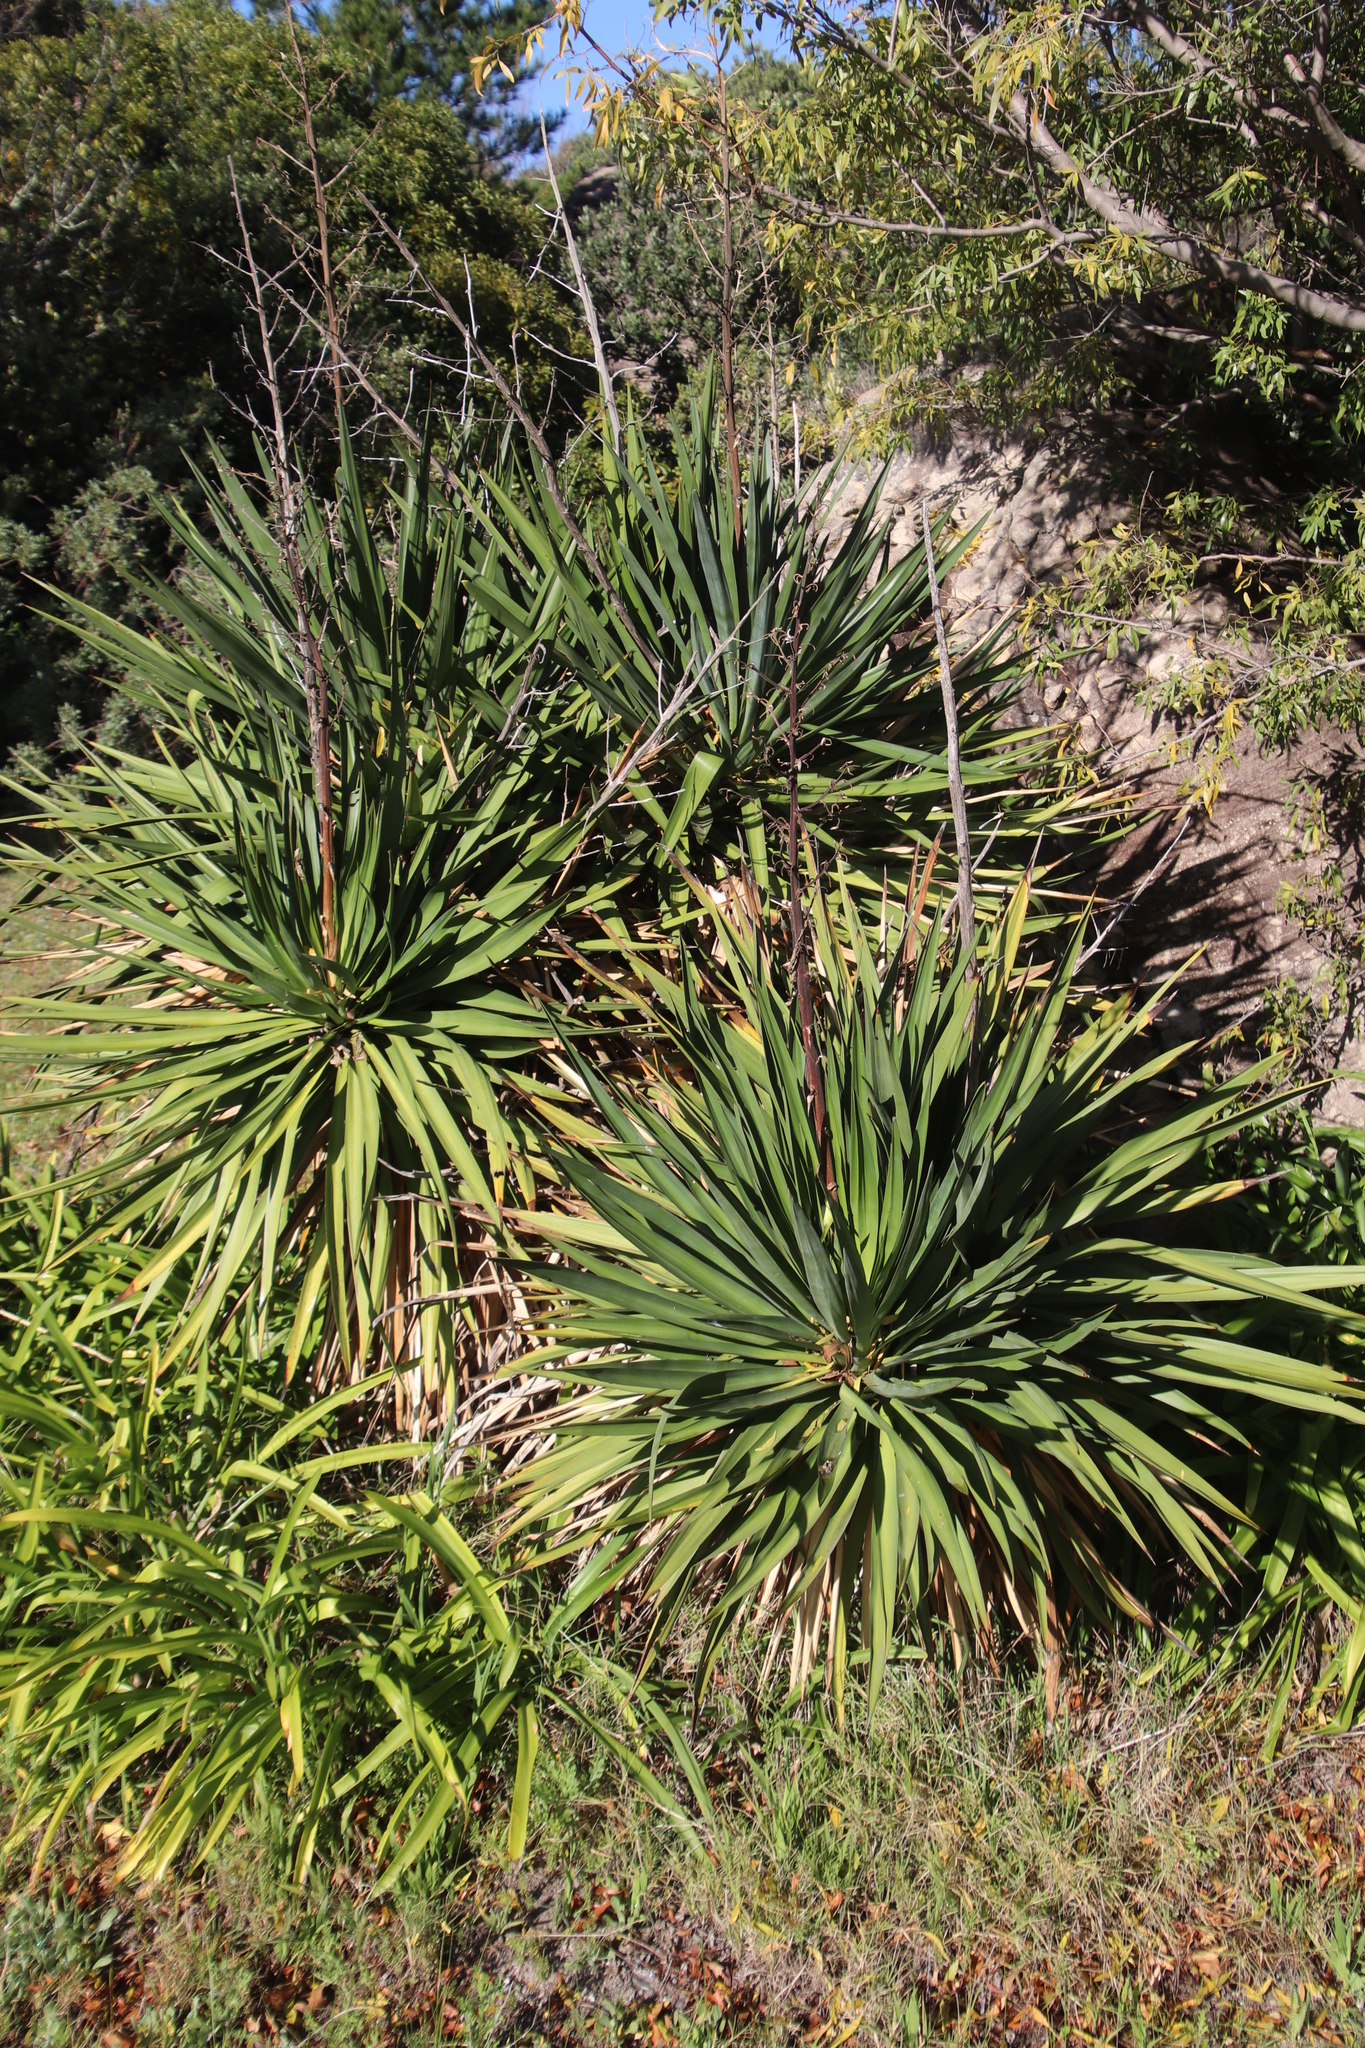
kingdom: Plantae
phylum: Tracheophyta
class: Liliopsida
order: Asparagales
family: Asparagaceae
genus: Yucca
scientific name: Yucca gloriosa
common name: Spanish-dagger
